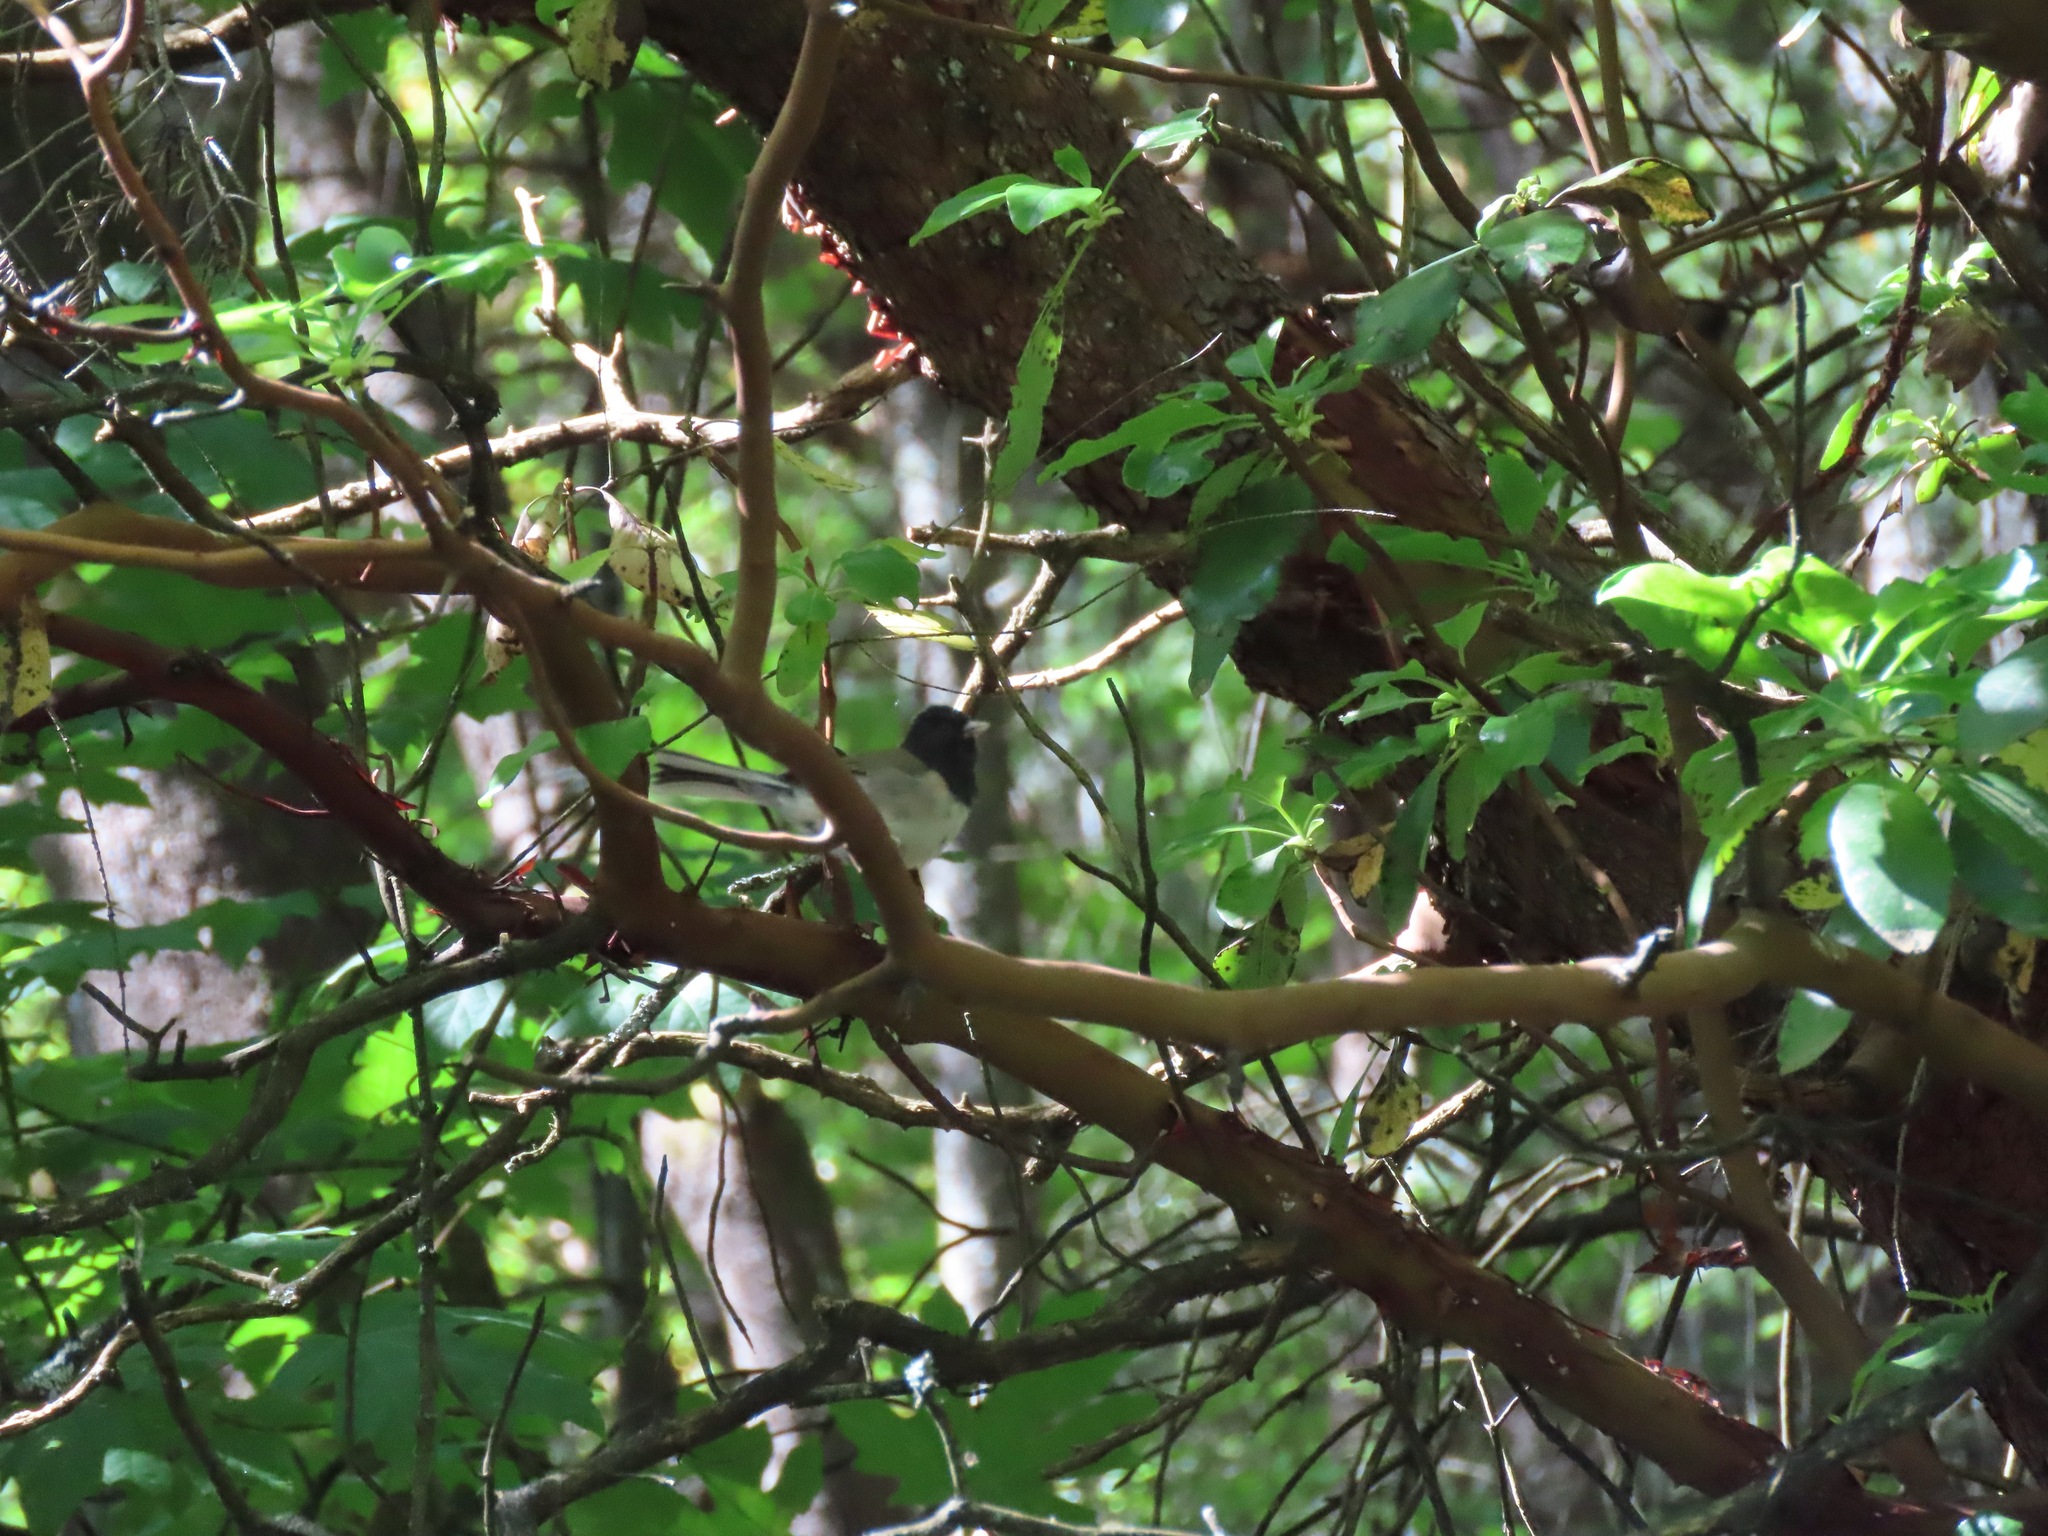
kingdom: Animalia
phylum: Chordata
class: Aves
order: Passeriformes
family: Passerellidae
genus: Junco
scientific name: Junco hyemalis
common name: Dark-eyed junco
